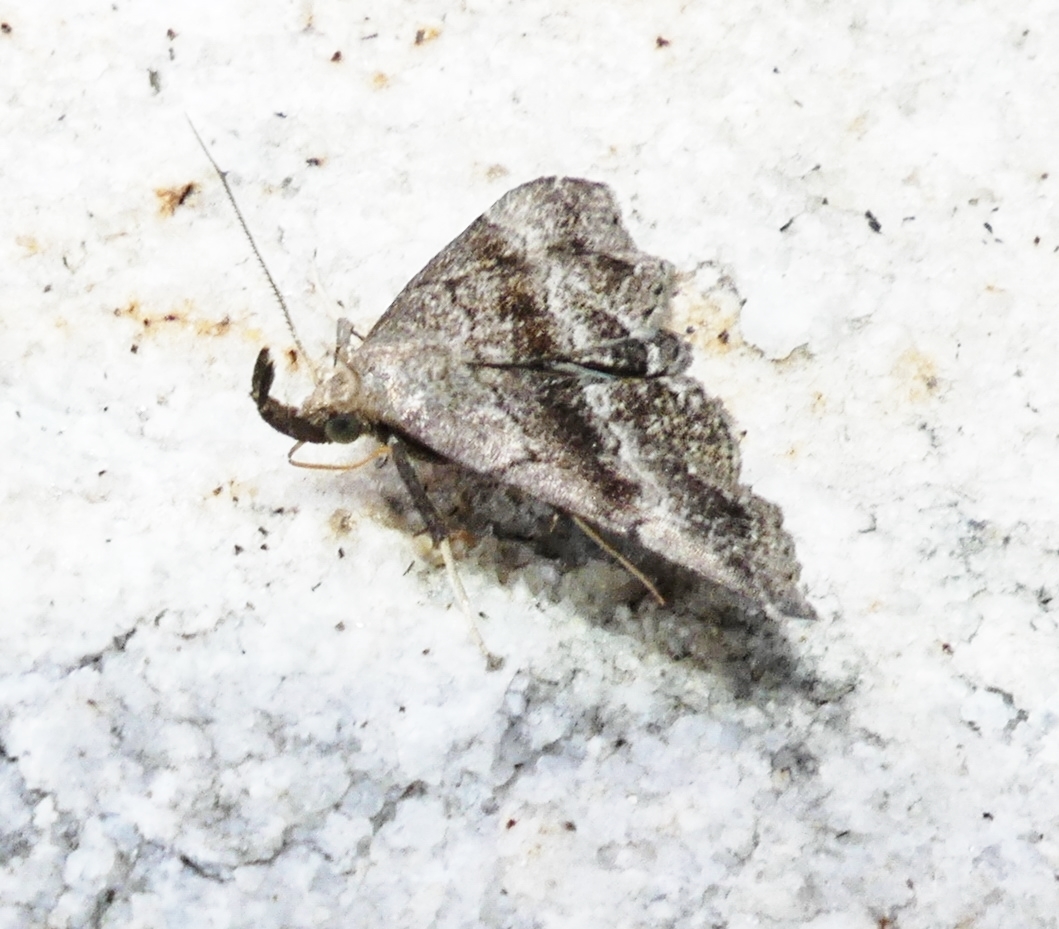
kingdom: Animalia
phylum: Arthropoda
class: Insecta
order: Lepidoptera
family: Erebidae
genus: Phalaenostola
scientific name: Phalaenostola larentioides
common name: Black-banded owlet
